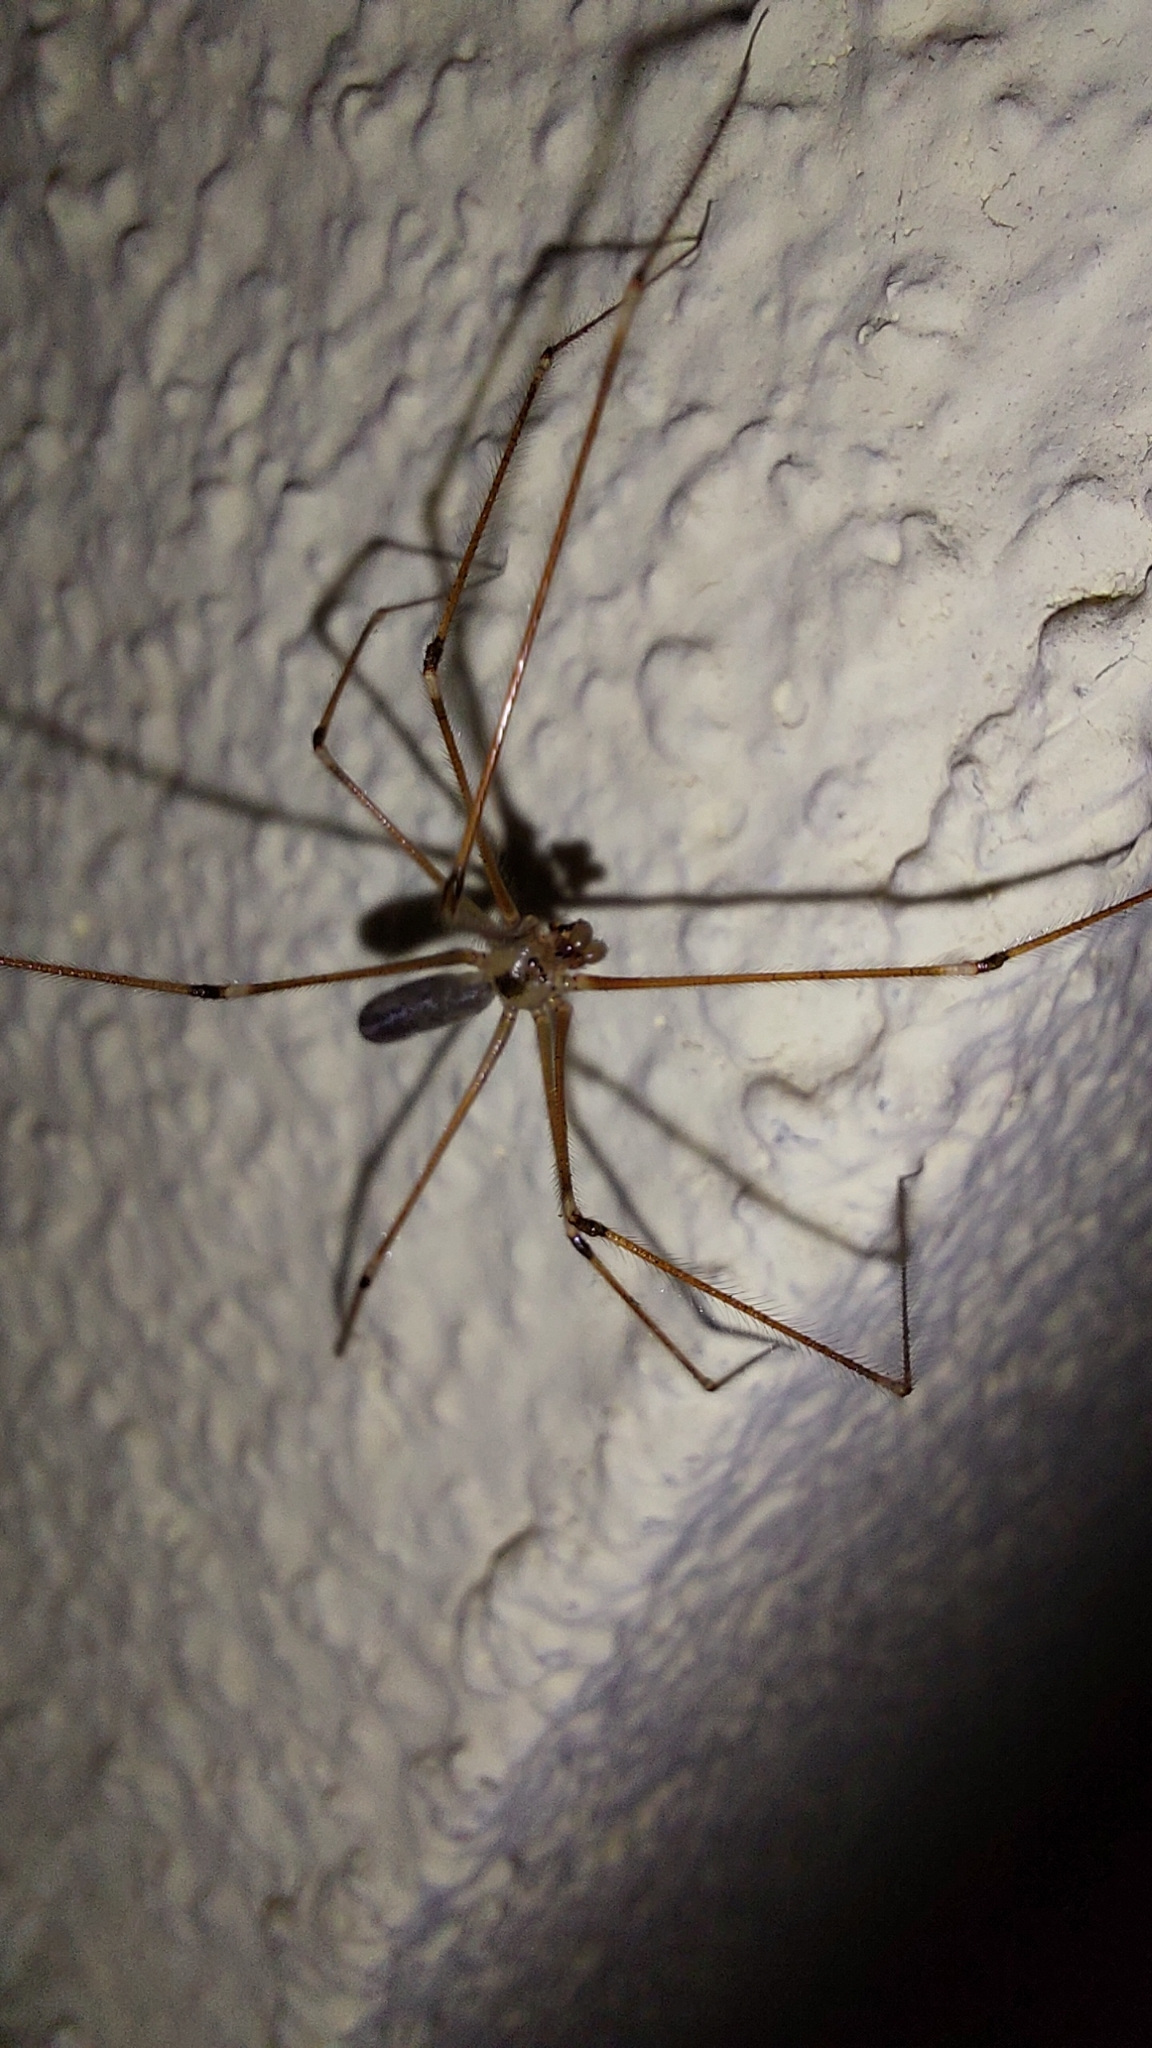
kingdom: Animalia
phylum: Arthropoda
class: Arachnida
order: Araneae
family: Pholcidae
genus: Pholcus
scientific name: Pholcus phalangioides
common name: Longbodied cellar spider
